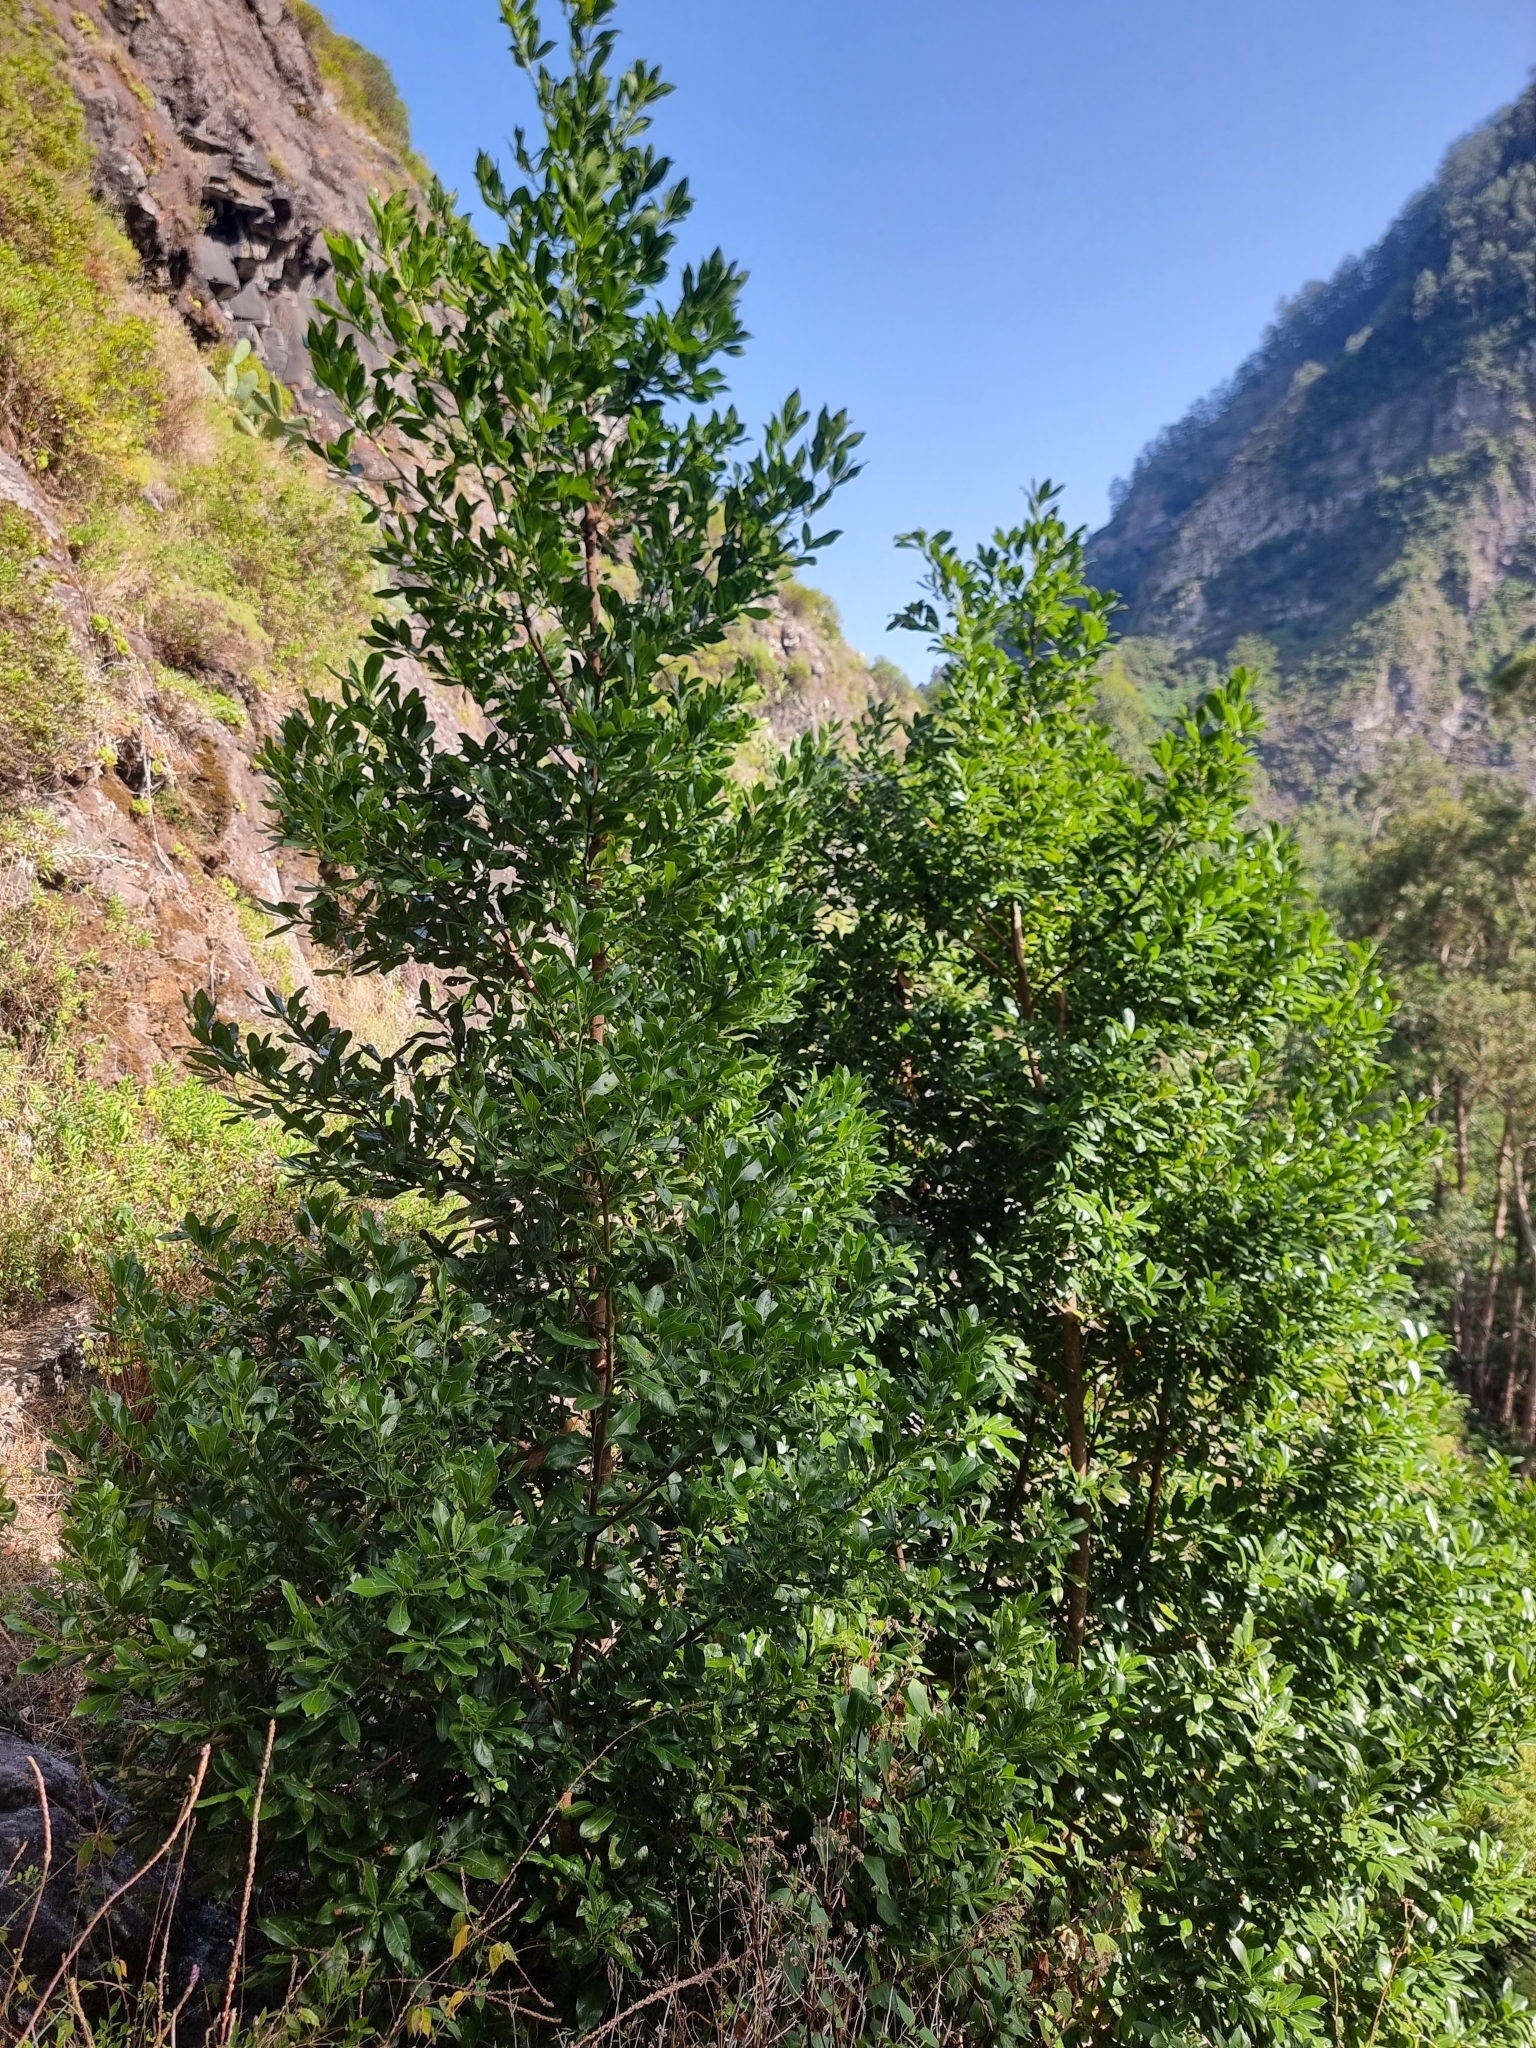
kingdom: Plantae
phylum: Tracheophyta
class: Magnoliopsida
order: Laurales
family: Lauraceae
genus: Apollonias
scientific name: Apollonias barbujana
